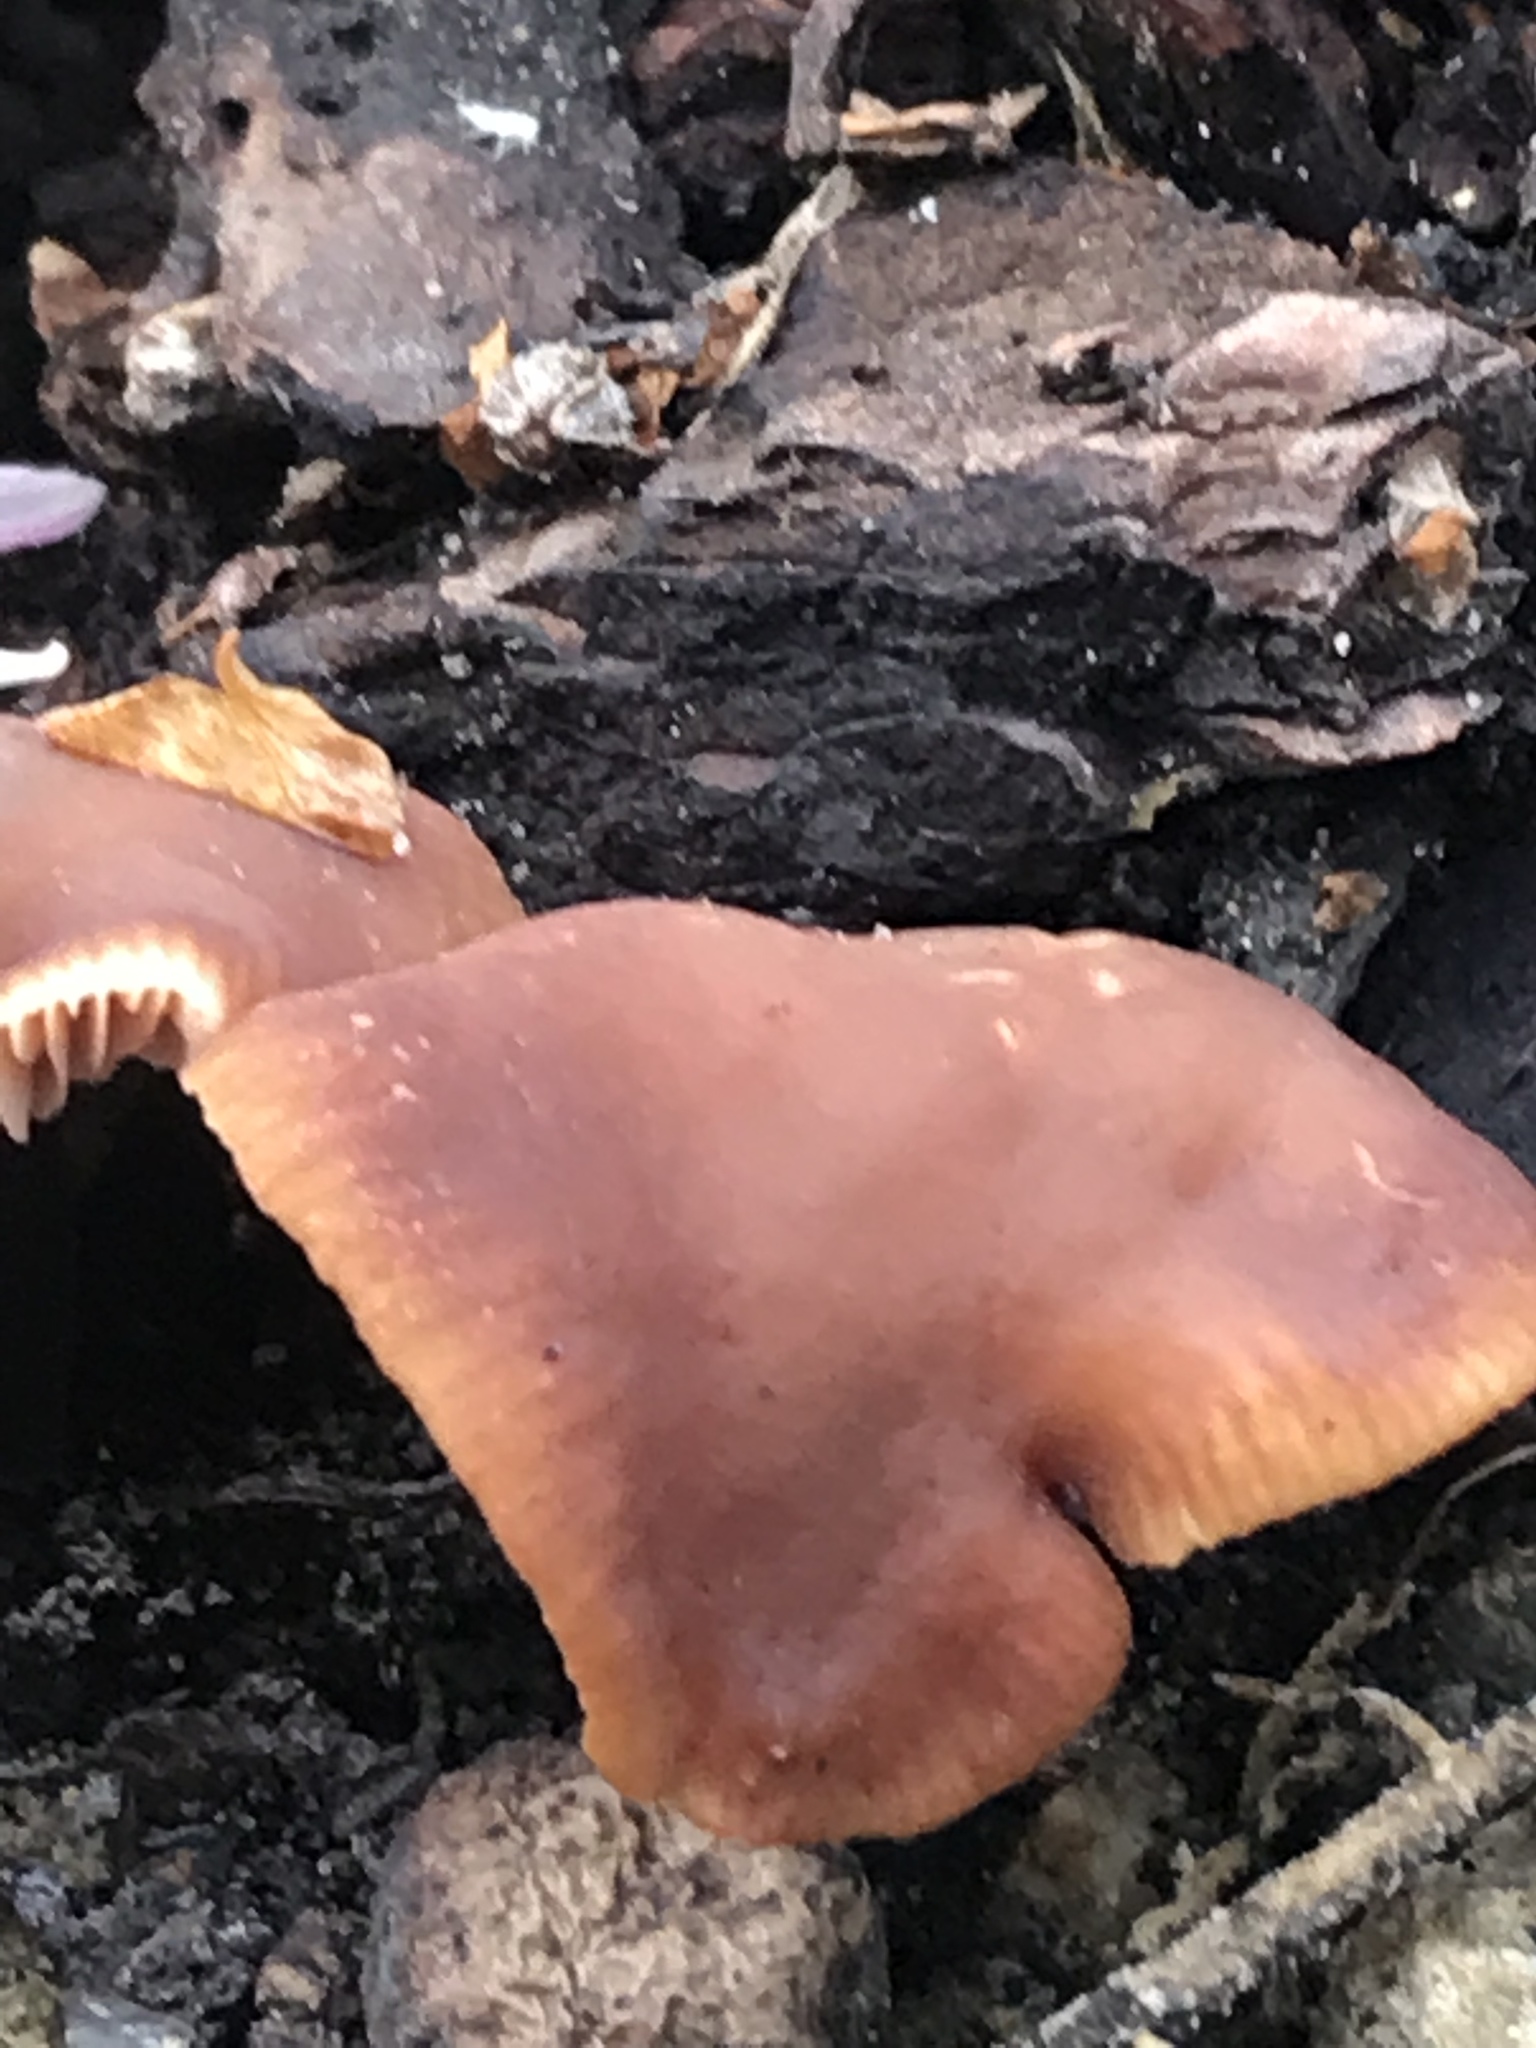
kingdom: Fungi
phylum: Basidiomycota
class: Agaricomycetes
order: Russulales
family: Russulaceae
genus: Lactarius
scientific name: Lactarius rufulus
